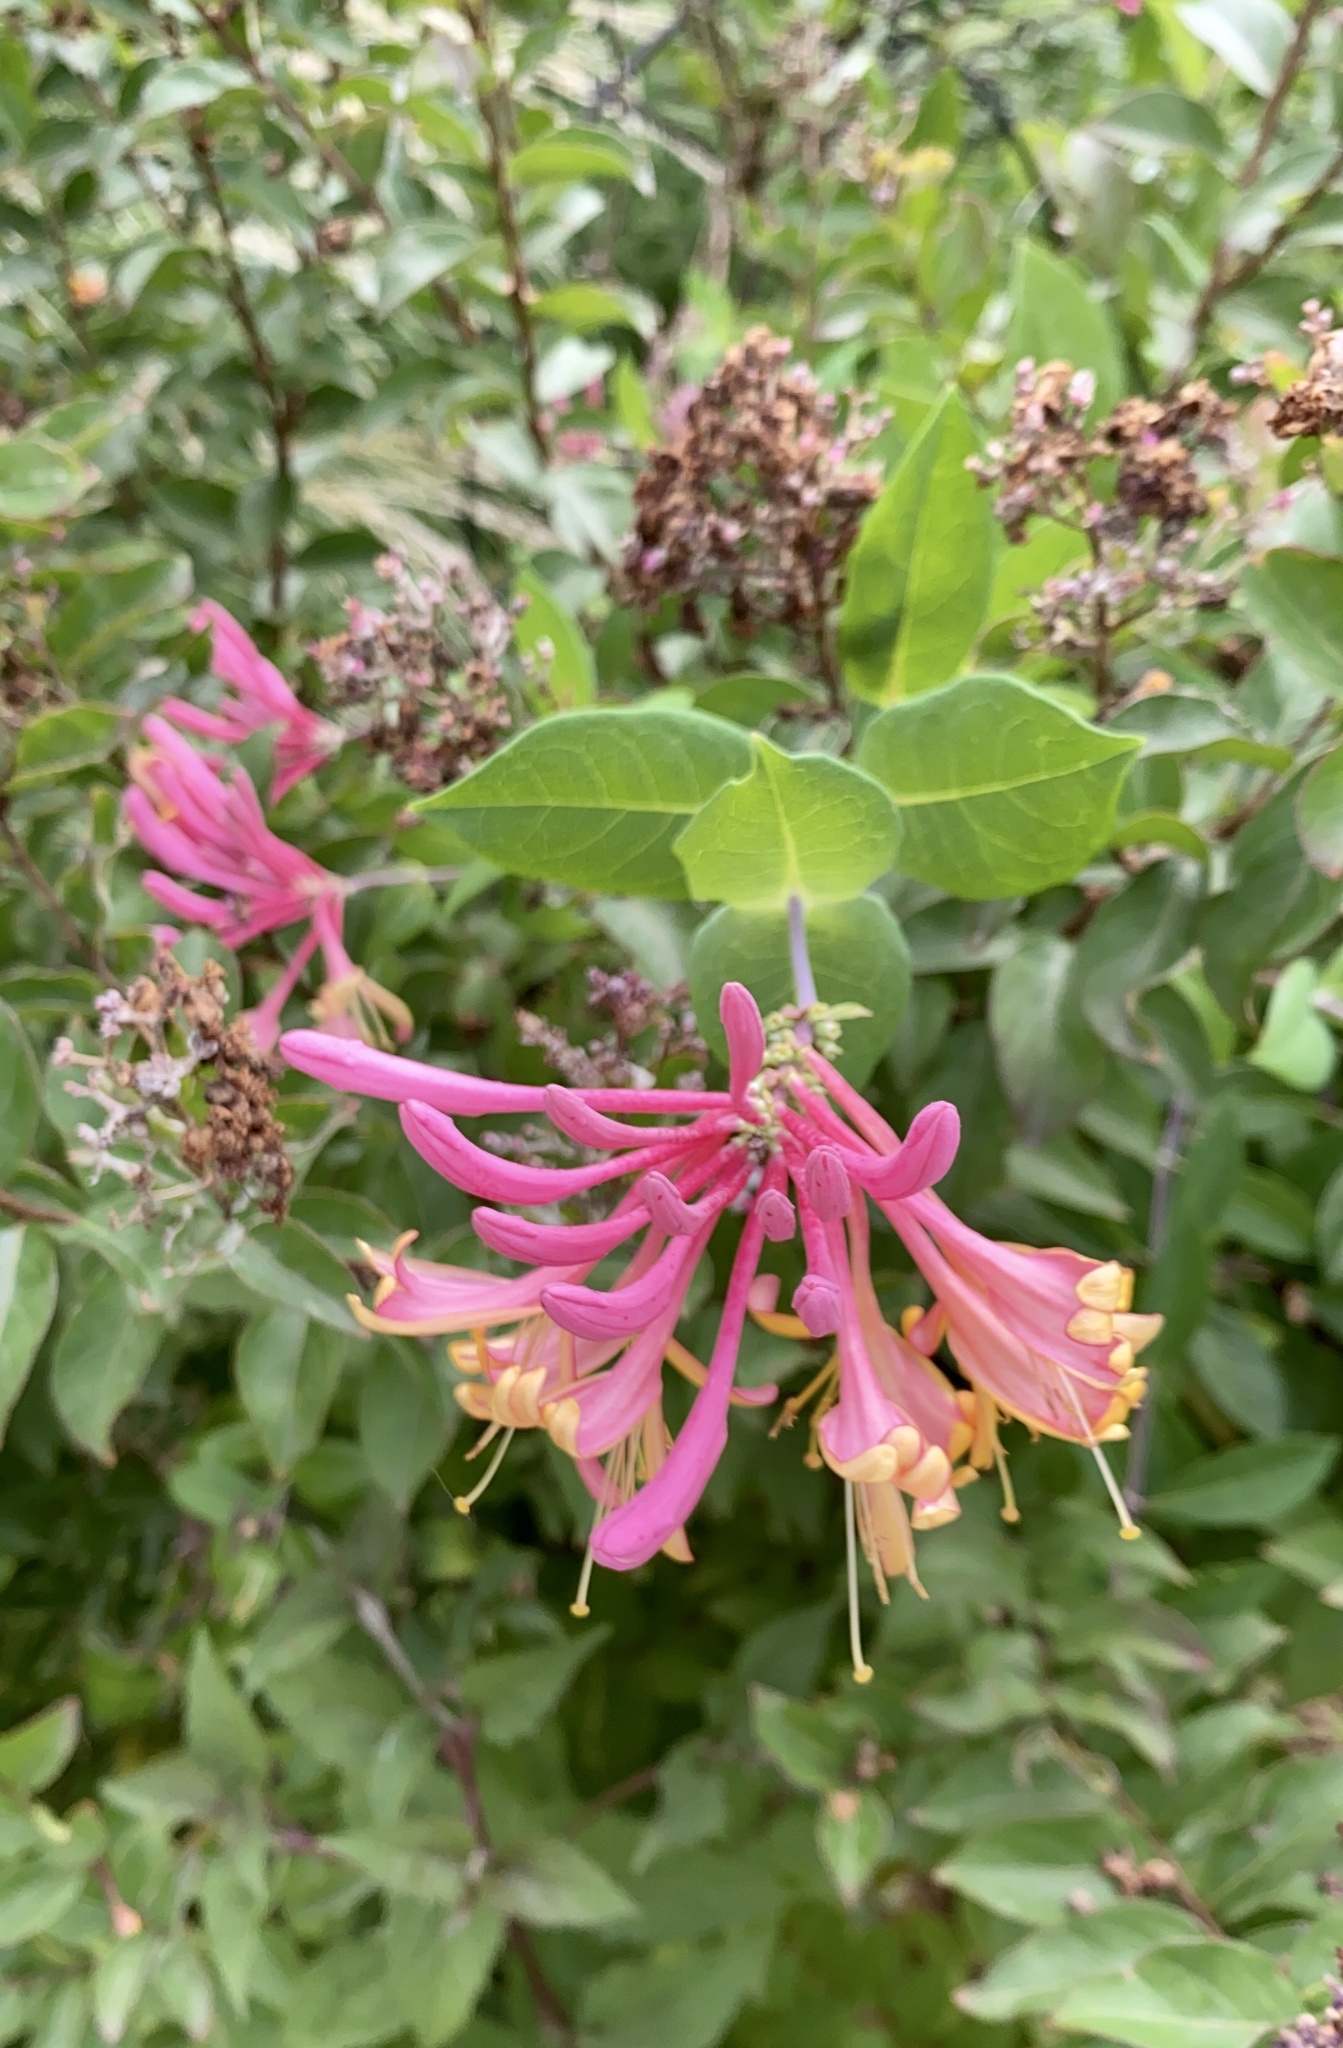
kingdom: Plantae
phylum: Tracheophyta
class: Magnoliopsida
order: Dipsacales
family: Caprifoliaceae
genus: Lonicera
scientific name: Lonicera sempervirens
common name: Coral honeysuckle
